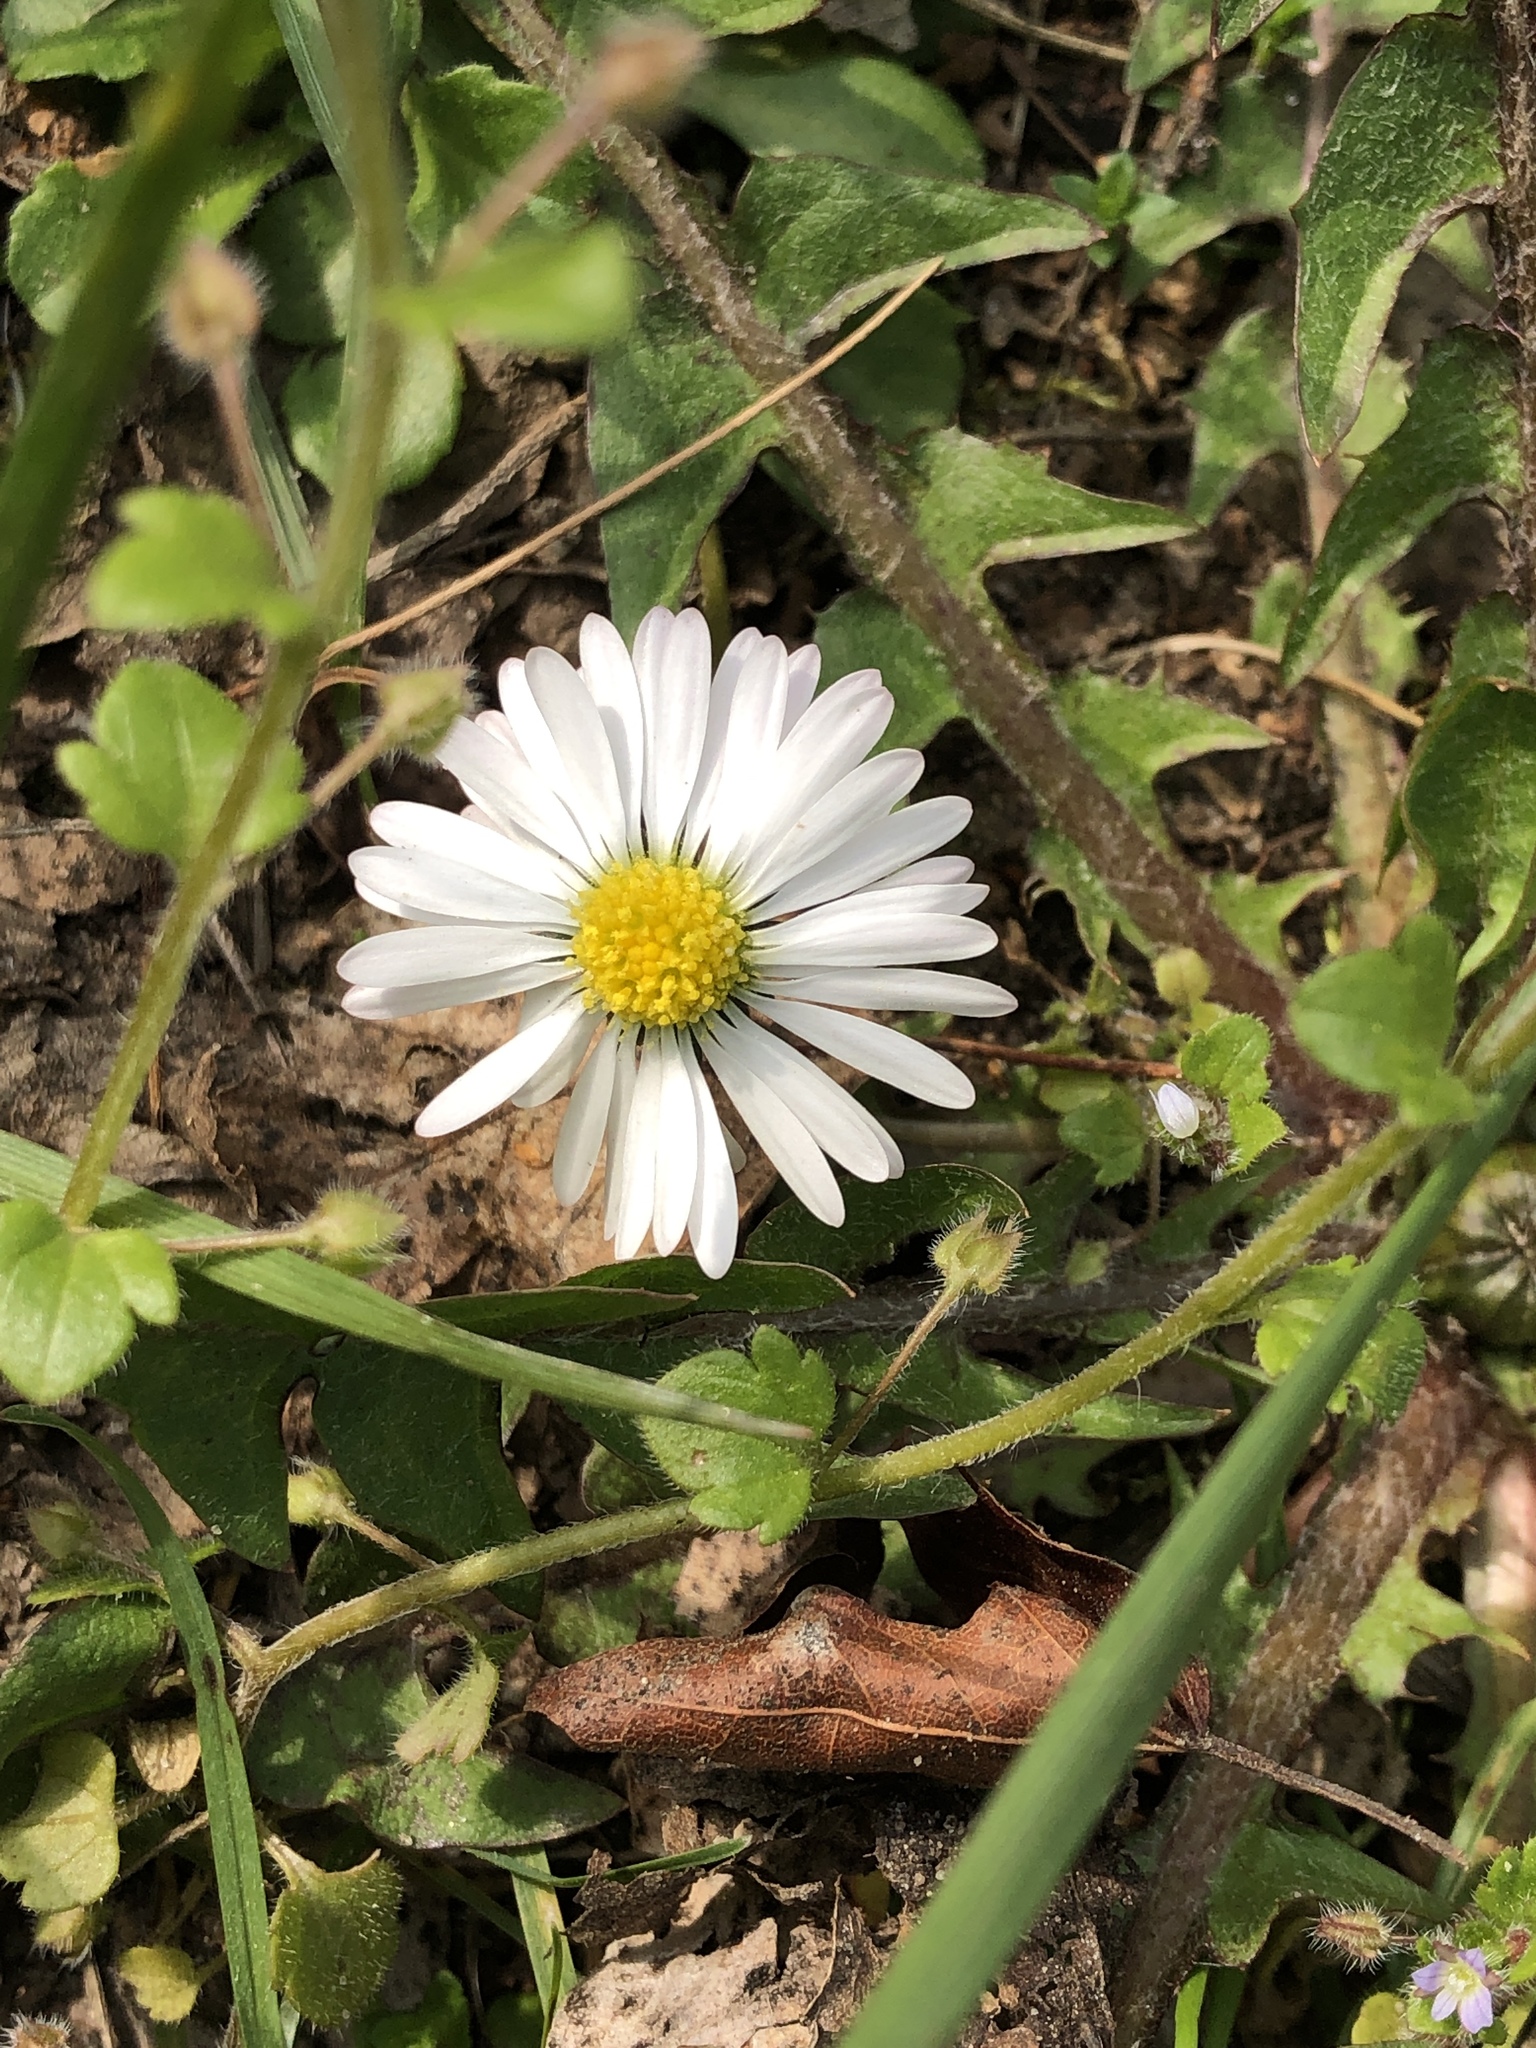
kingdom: Plantae
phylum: Tracheophyta
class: Magnoliopsida
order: Asterales
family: Asteraceae
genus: Bellis
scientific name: Bellis perennis
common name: Lawndaisy
